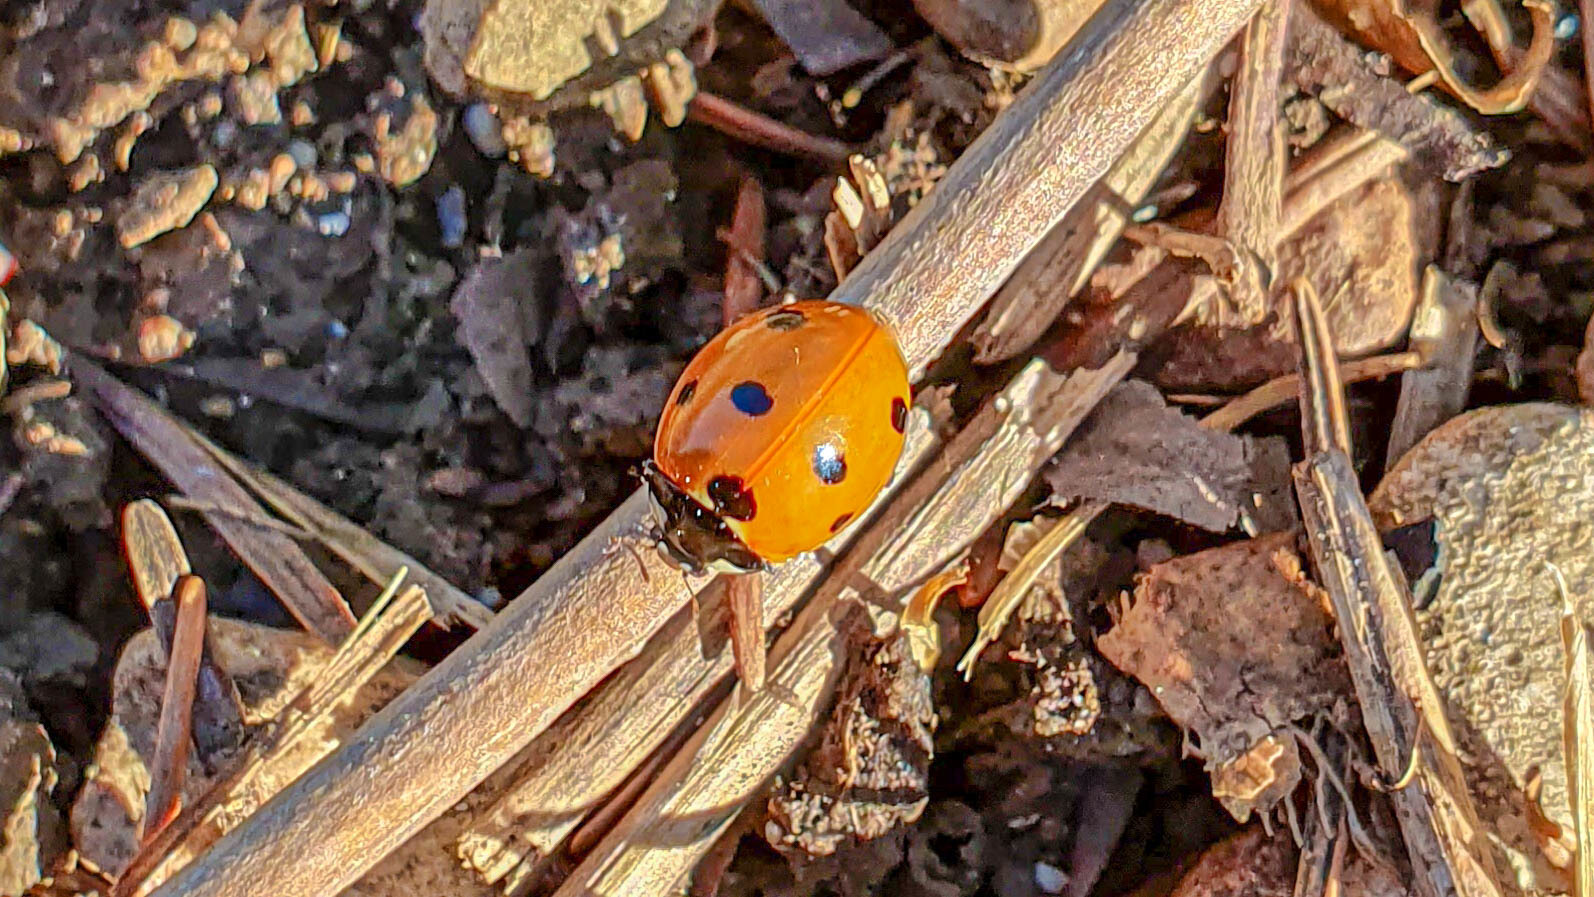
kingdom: Animalia
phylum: Arthropoda
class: Insecta
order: Coleoptera
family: Coccinellidae
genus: Coccinella
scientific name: Coccinella septempunctata
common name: Sevenspotted lady beetle
